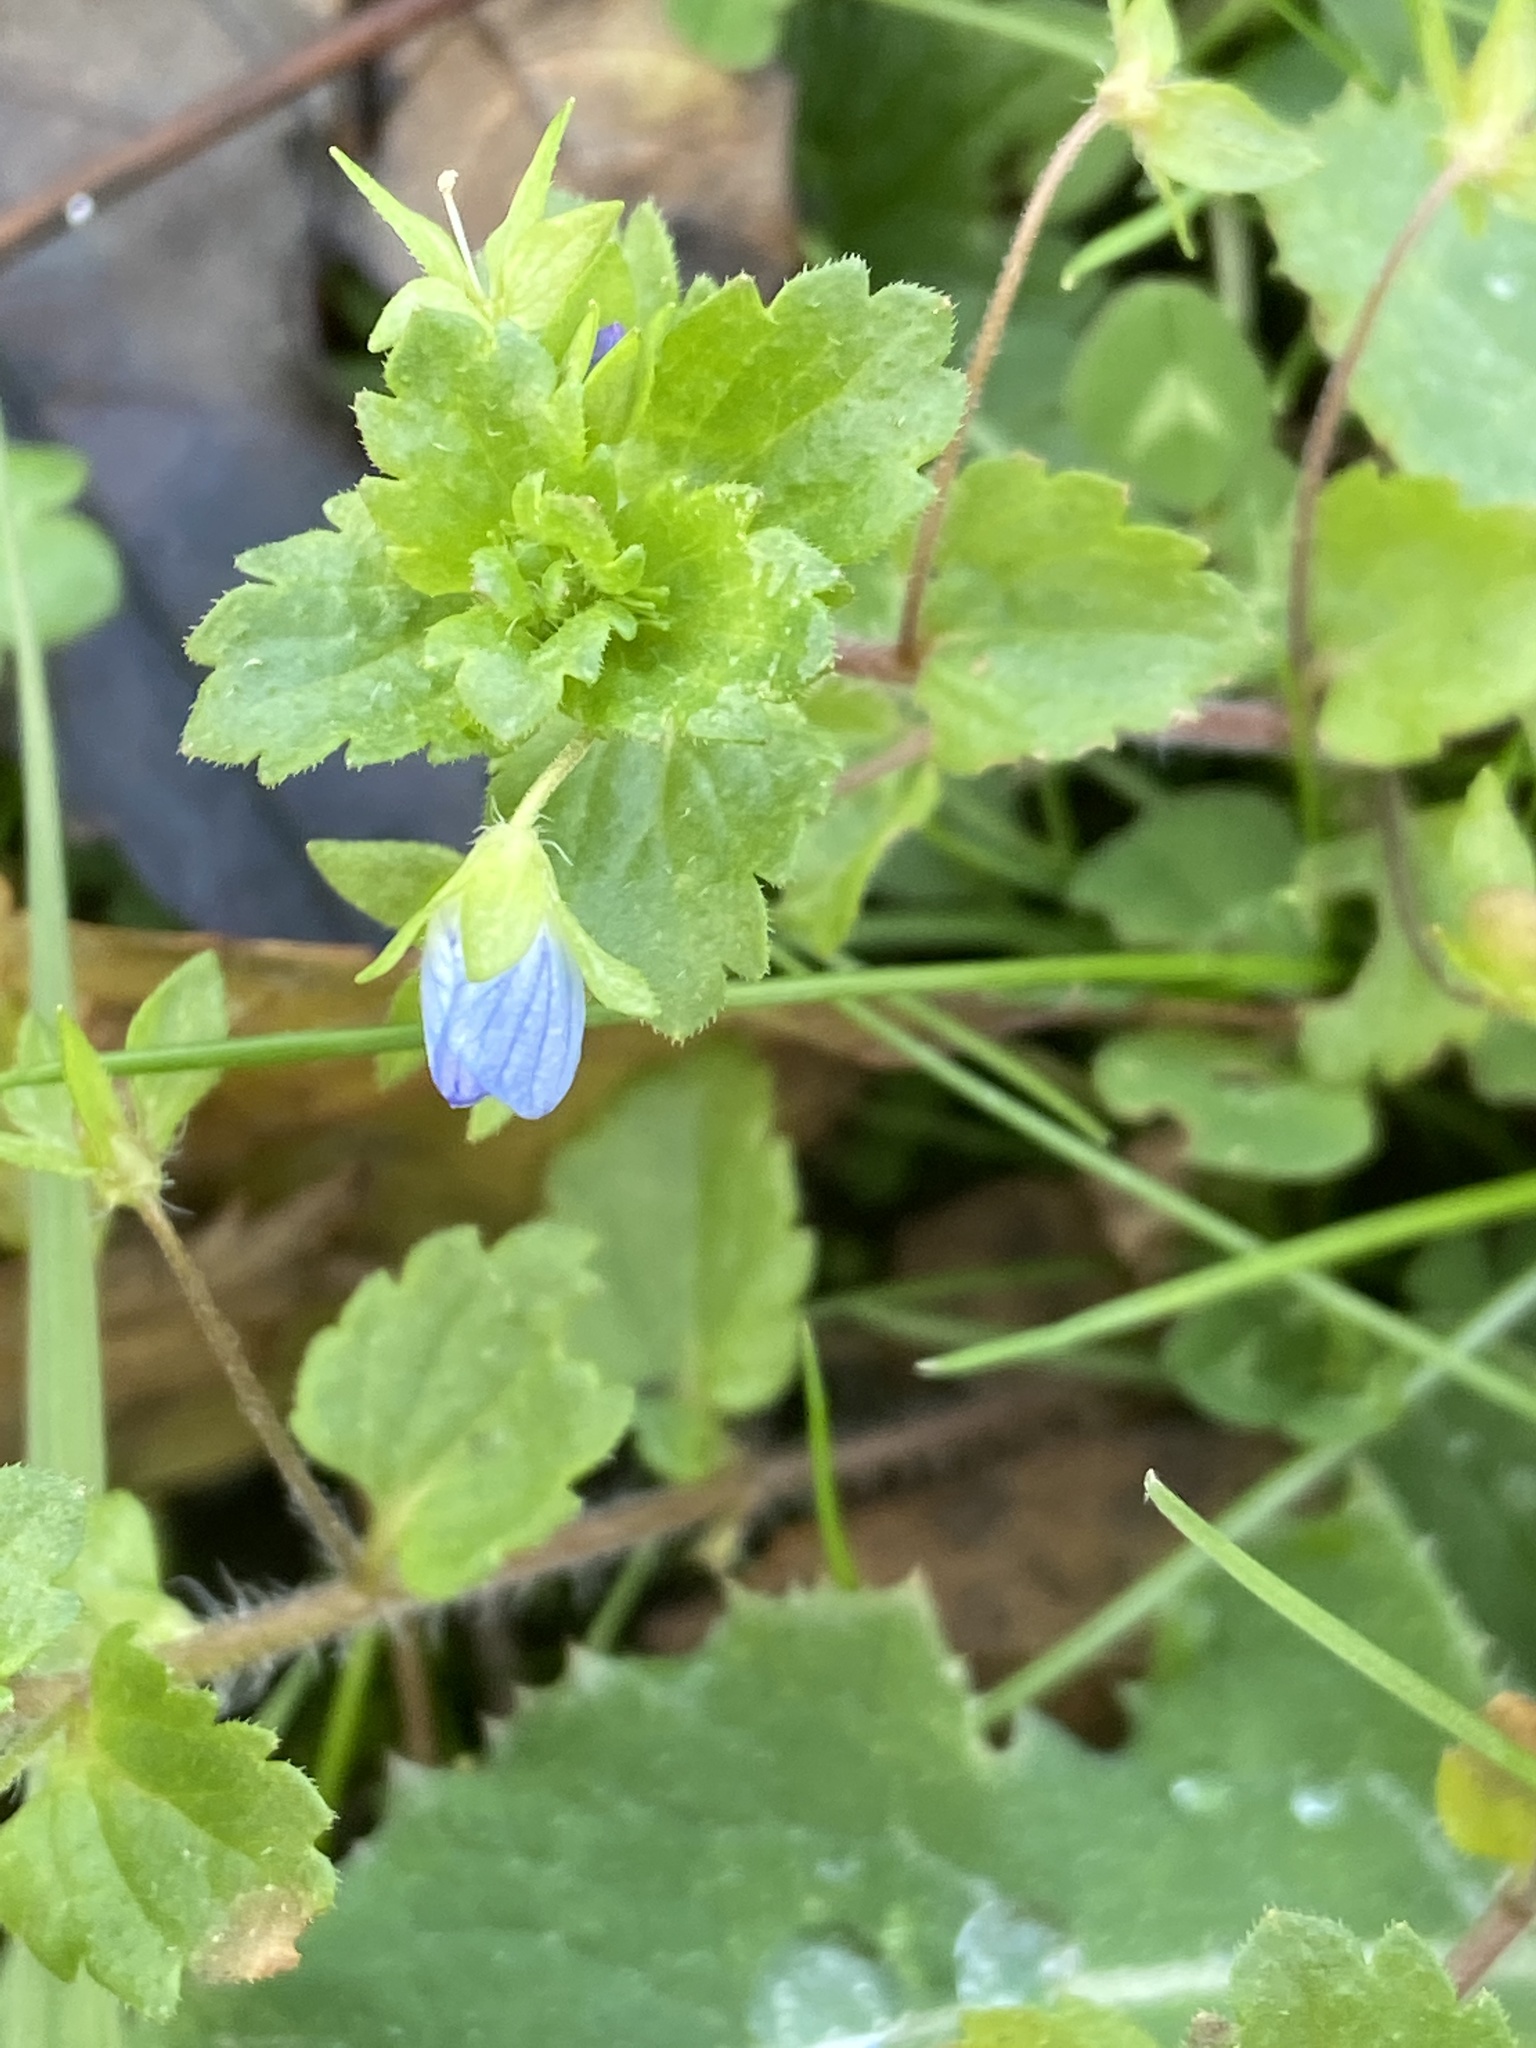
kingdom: Plantae
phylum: Tracheophyta
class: Magnoliopsida
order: Lamiales
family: Plantaginaceae
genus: Veronica
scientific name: Veronica persica
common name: Common field-speedwell
